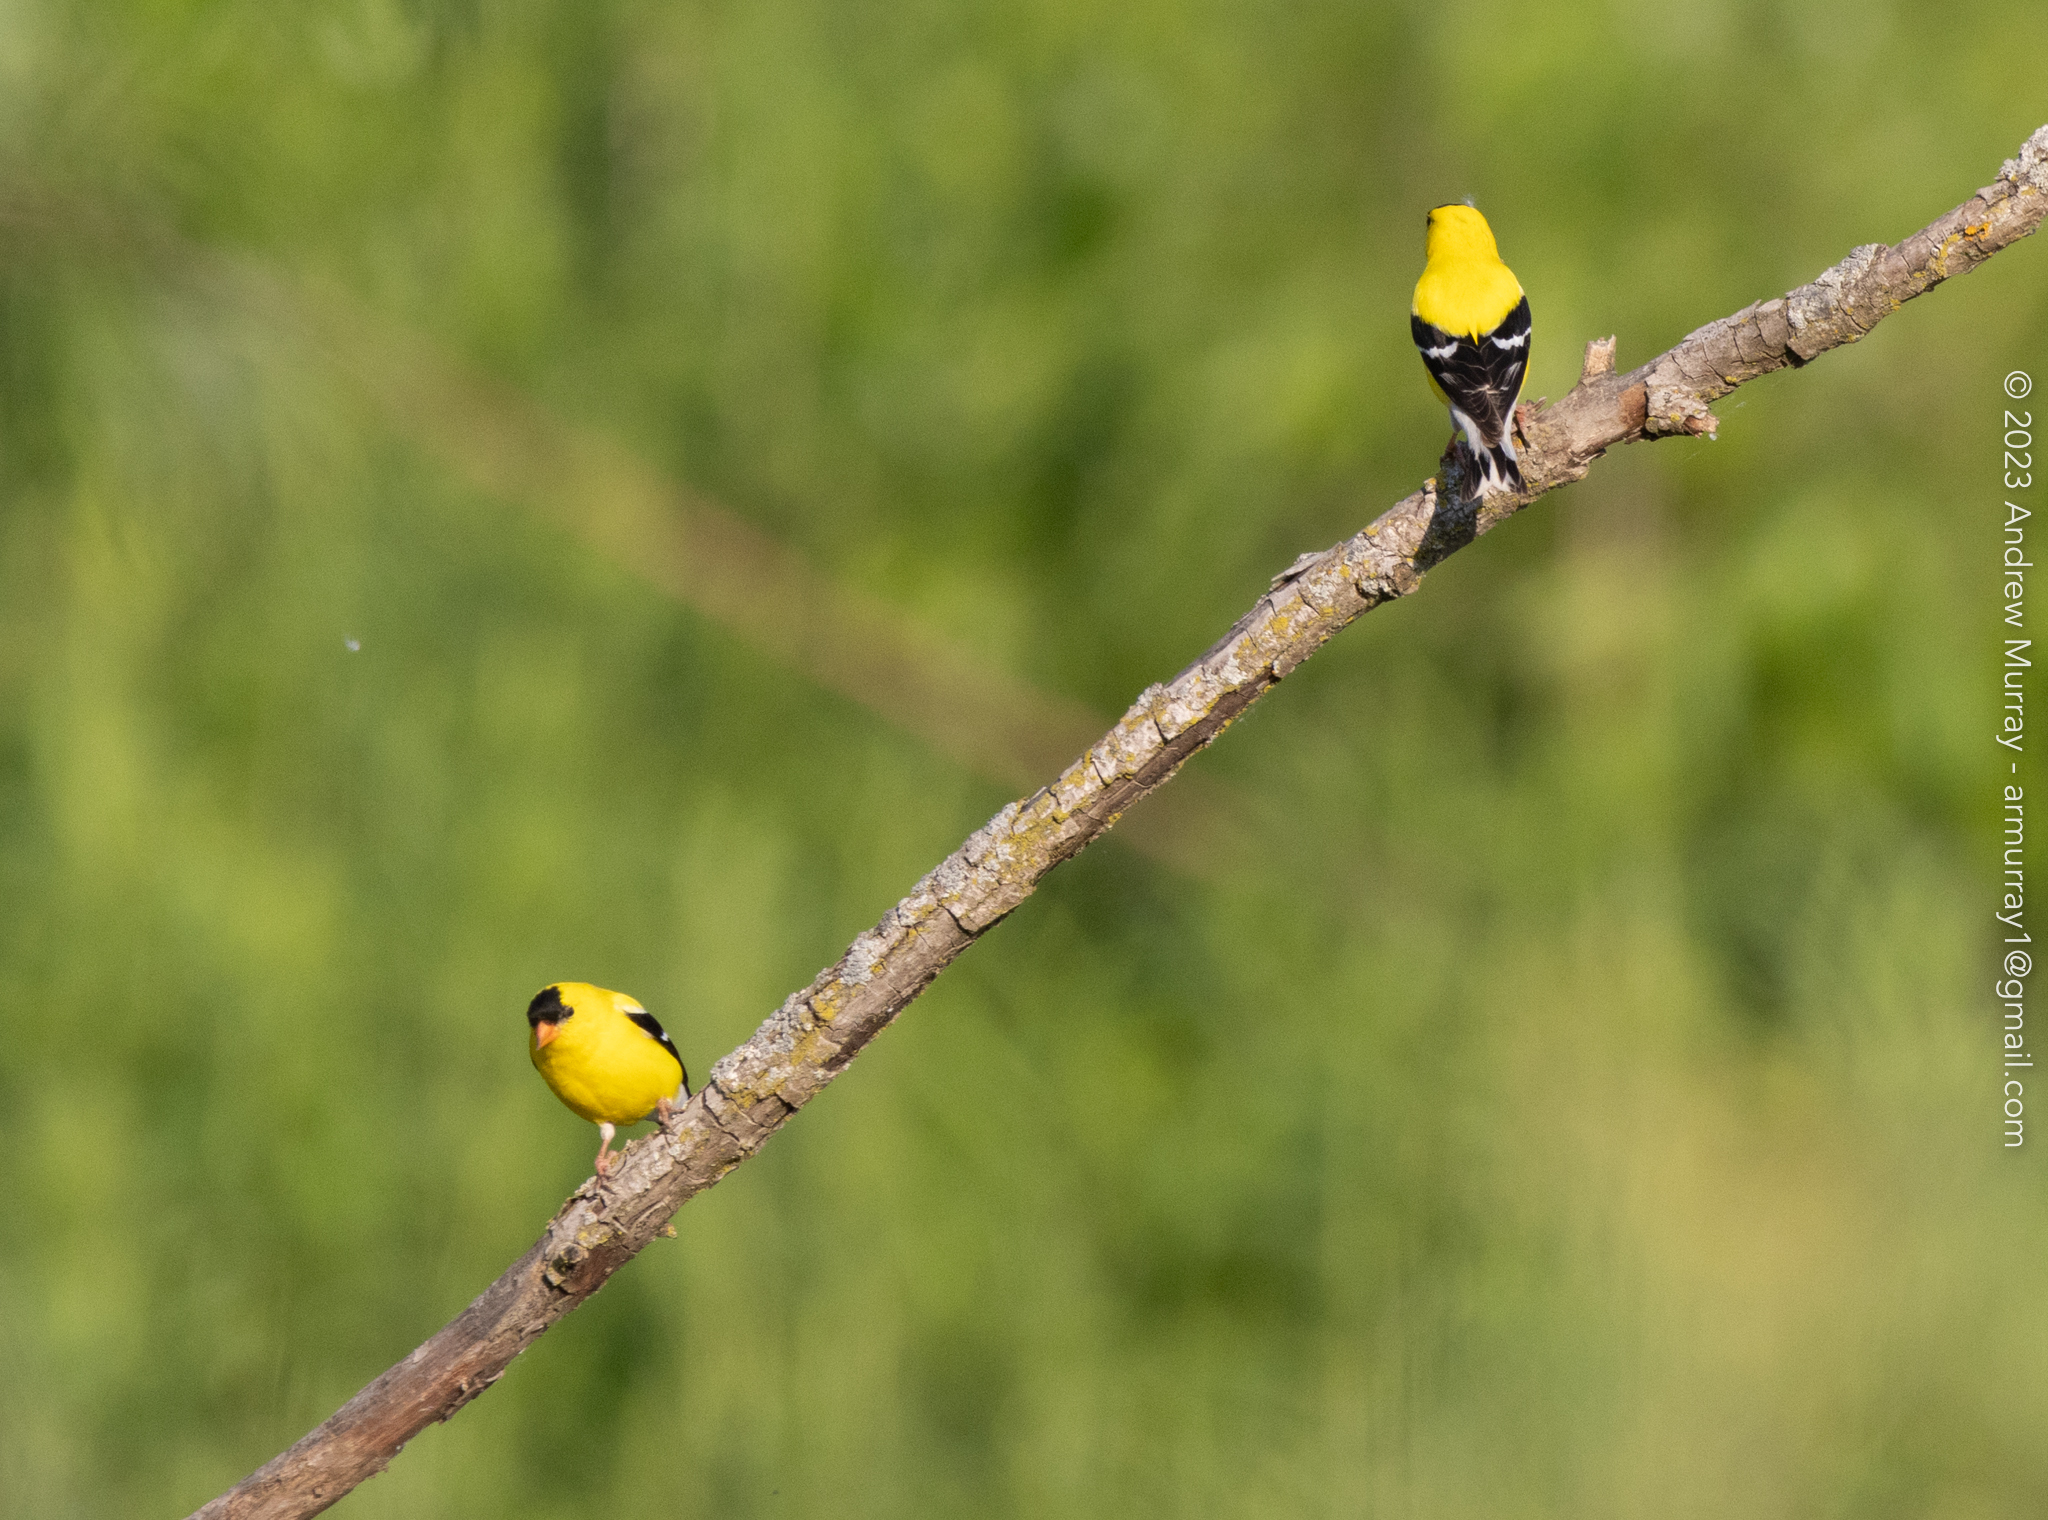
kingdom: Animalia
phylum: Chordata
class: Aves
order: Passeriformes
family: Fringillidae
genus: Spinus
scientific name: Spinus tristis
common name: American goldfinch
